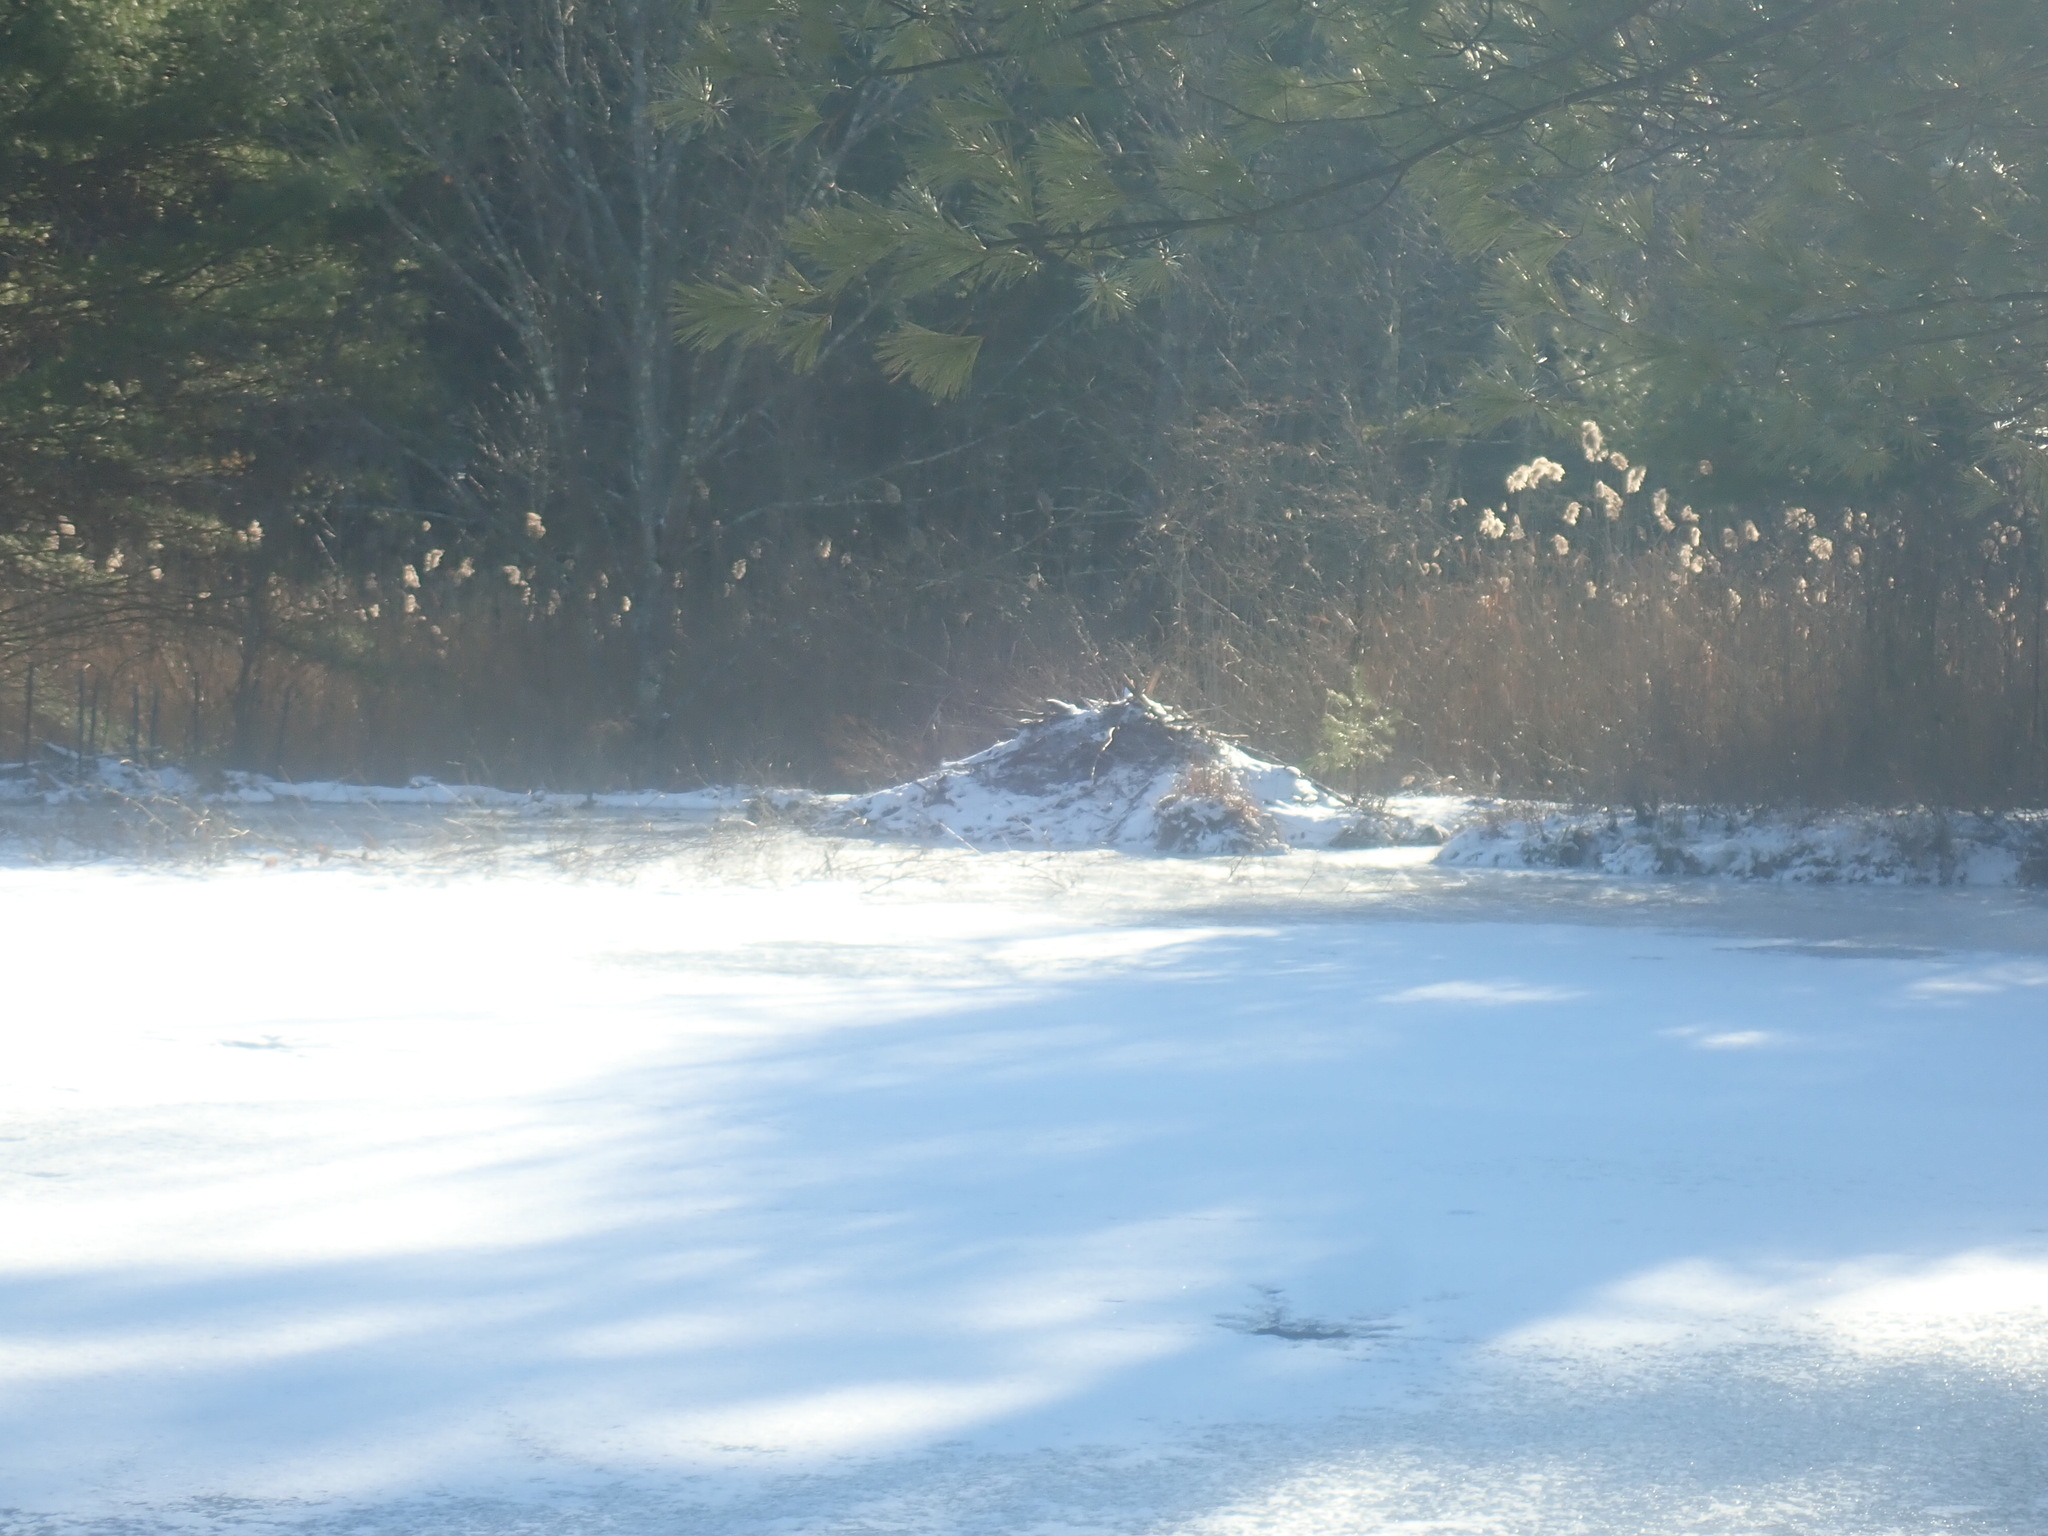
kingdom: Animalia
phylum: Chordata
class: Mammalia
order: Rodentia
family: Castoridae
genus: Castor
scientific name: Castor canadensis
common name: American beaver
